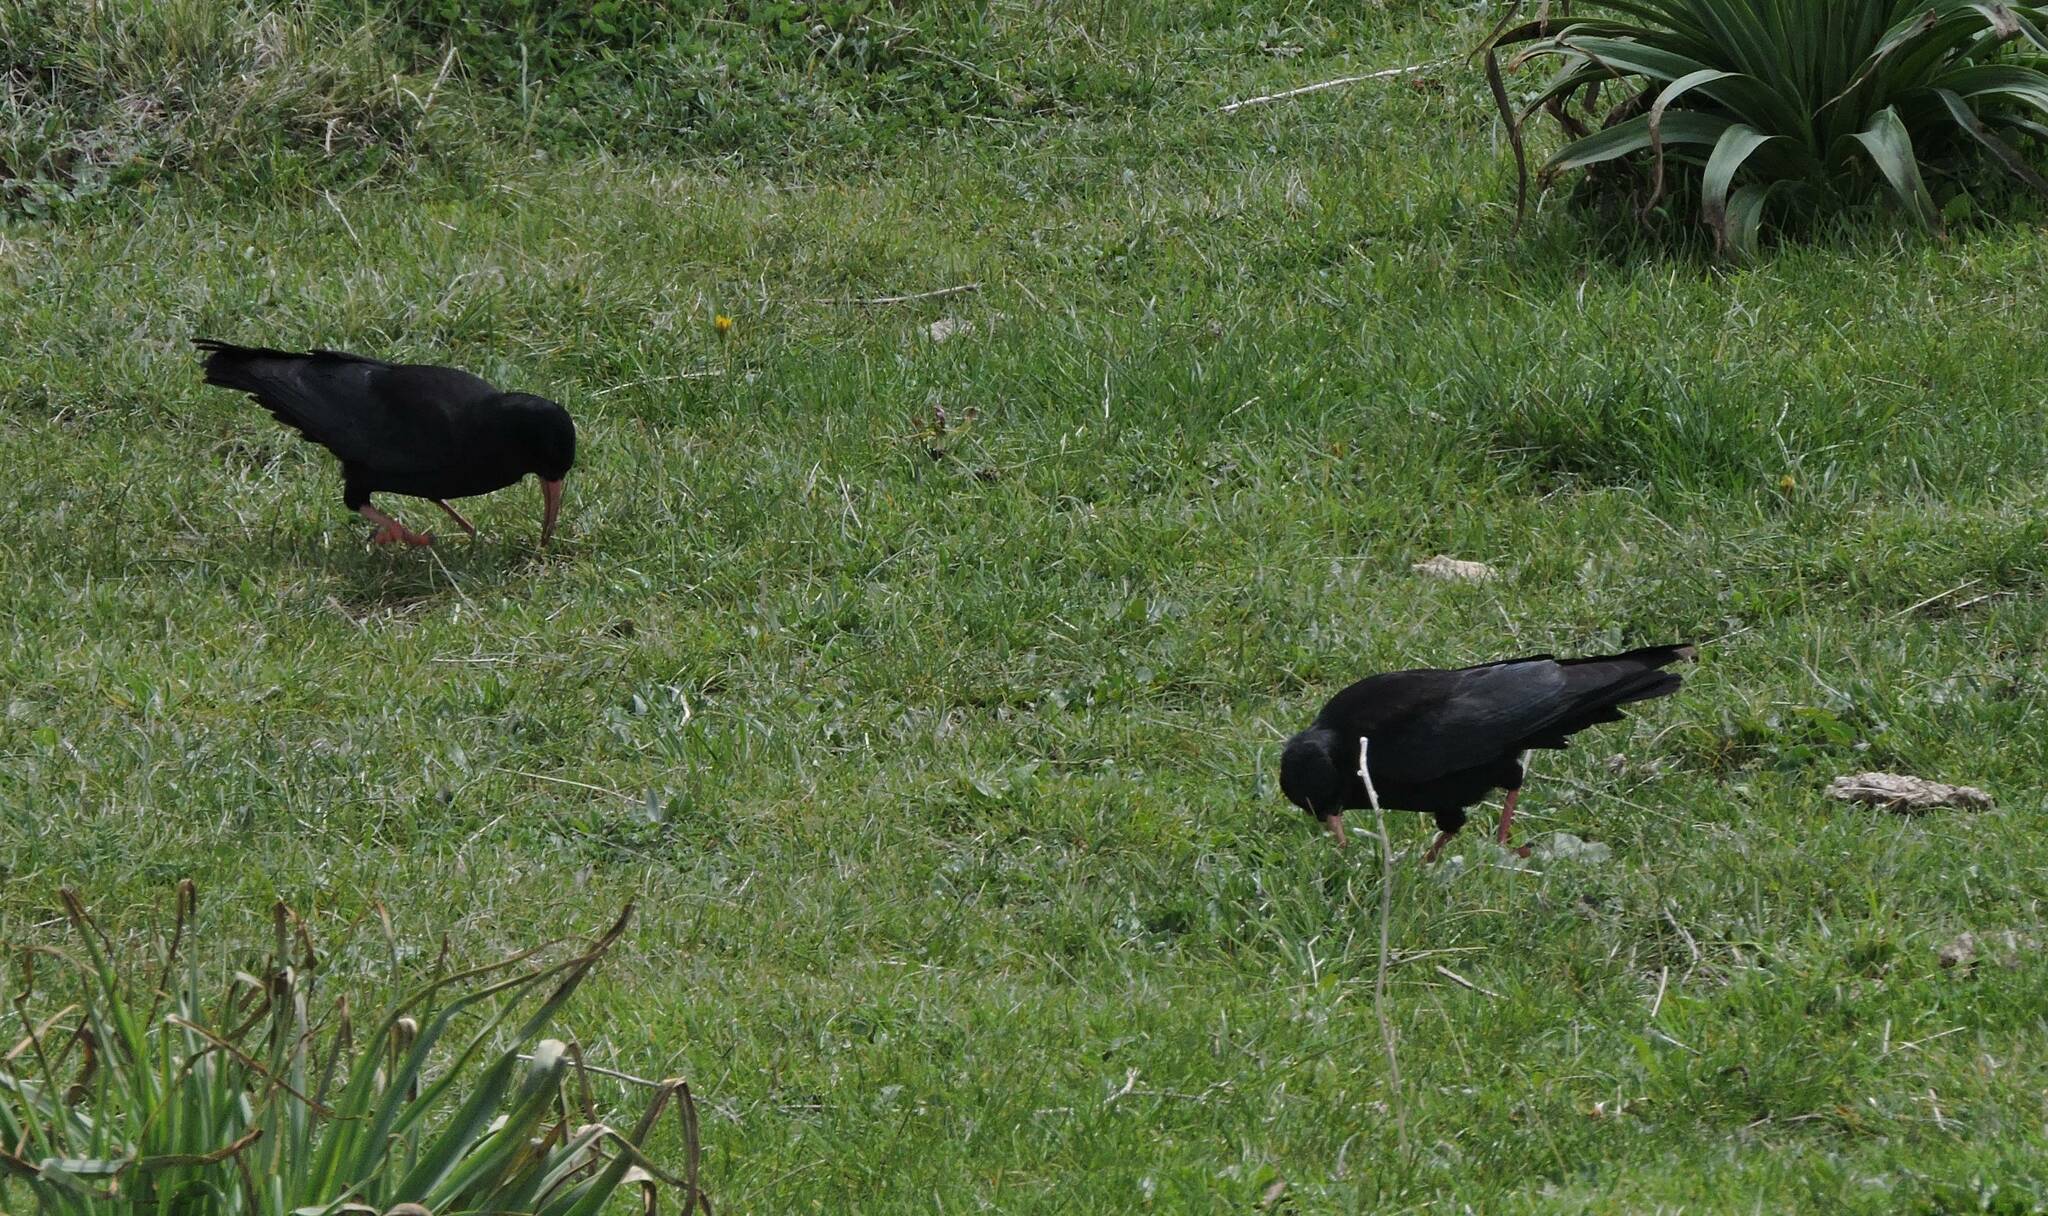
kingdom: Animalia
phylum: Chordata
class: Aves
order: Passeriformes
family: Corvidae
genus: Pyrrhocorax
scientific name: Pyrrhocorax pyrrhocorax
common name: Red-billed chough
